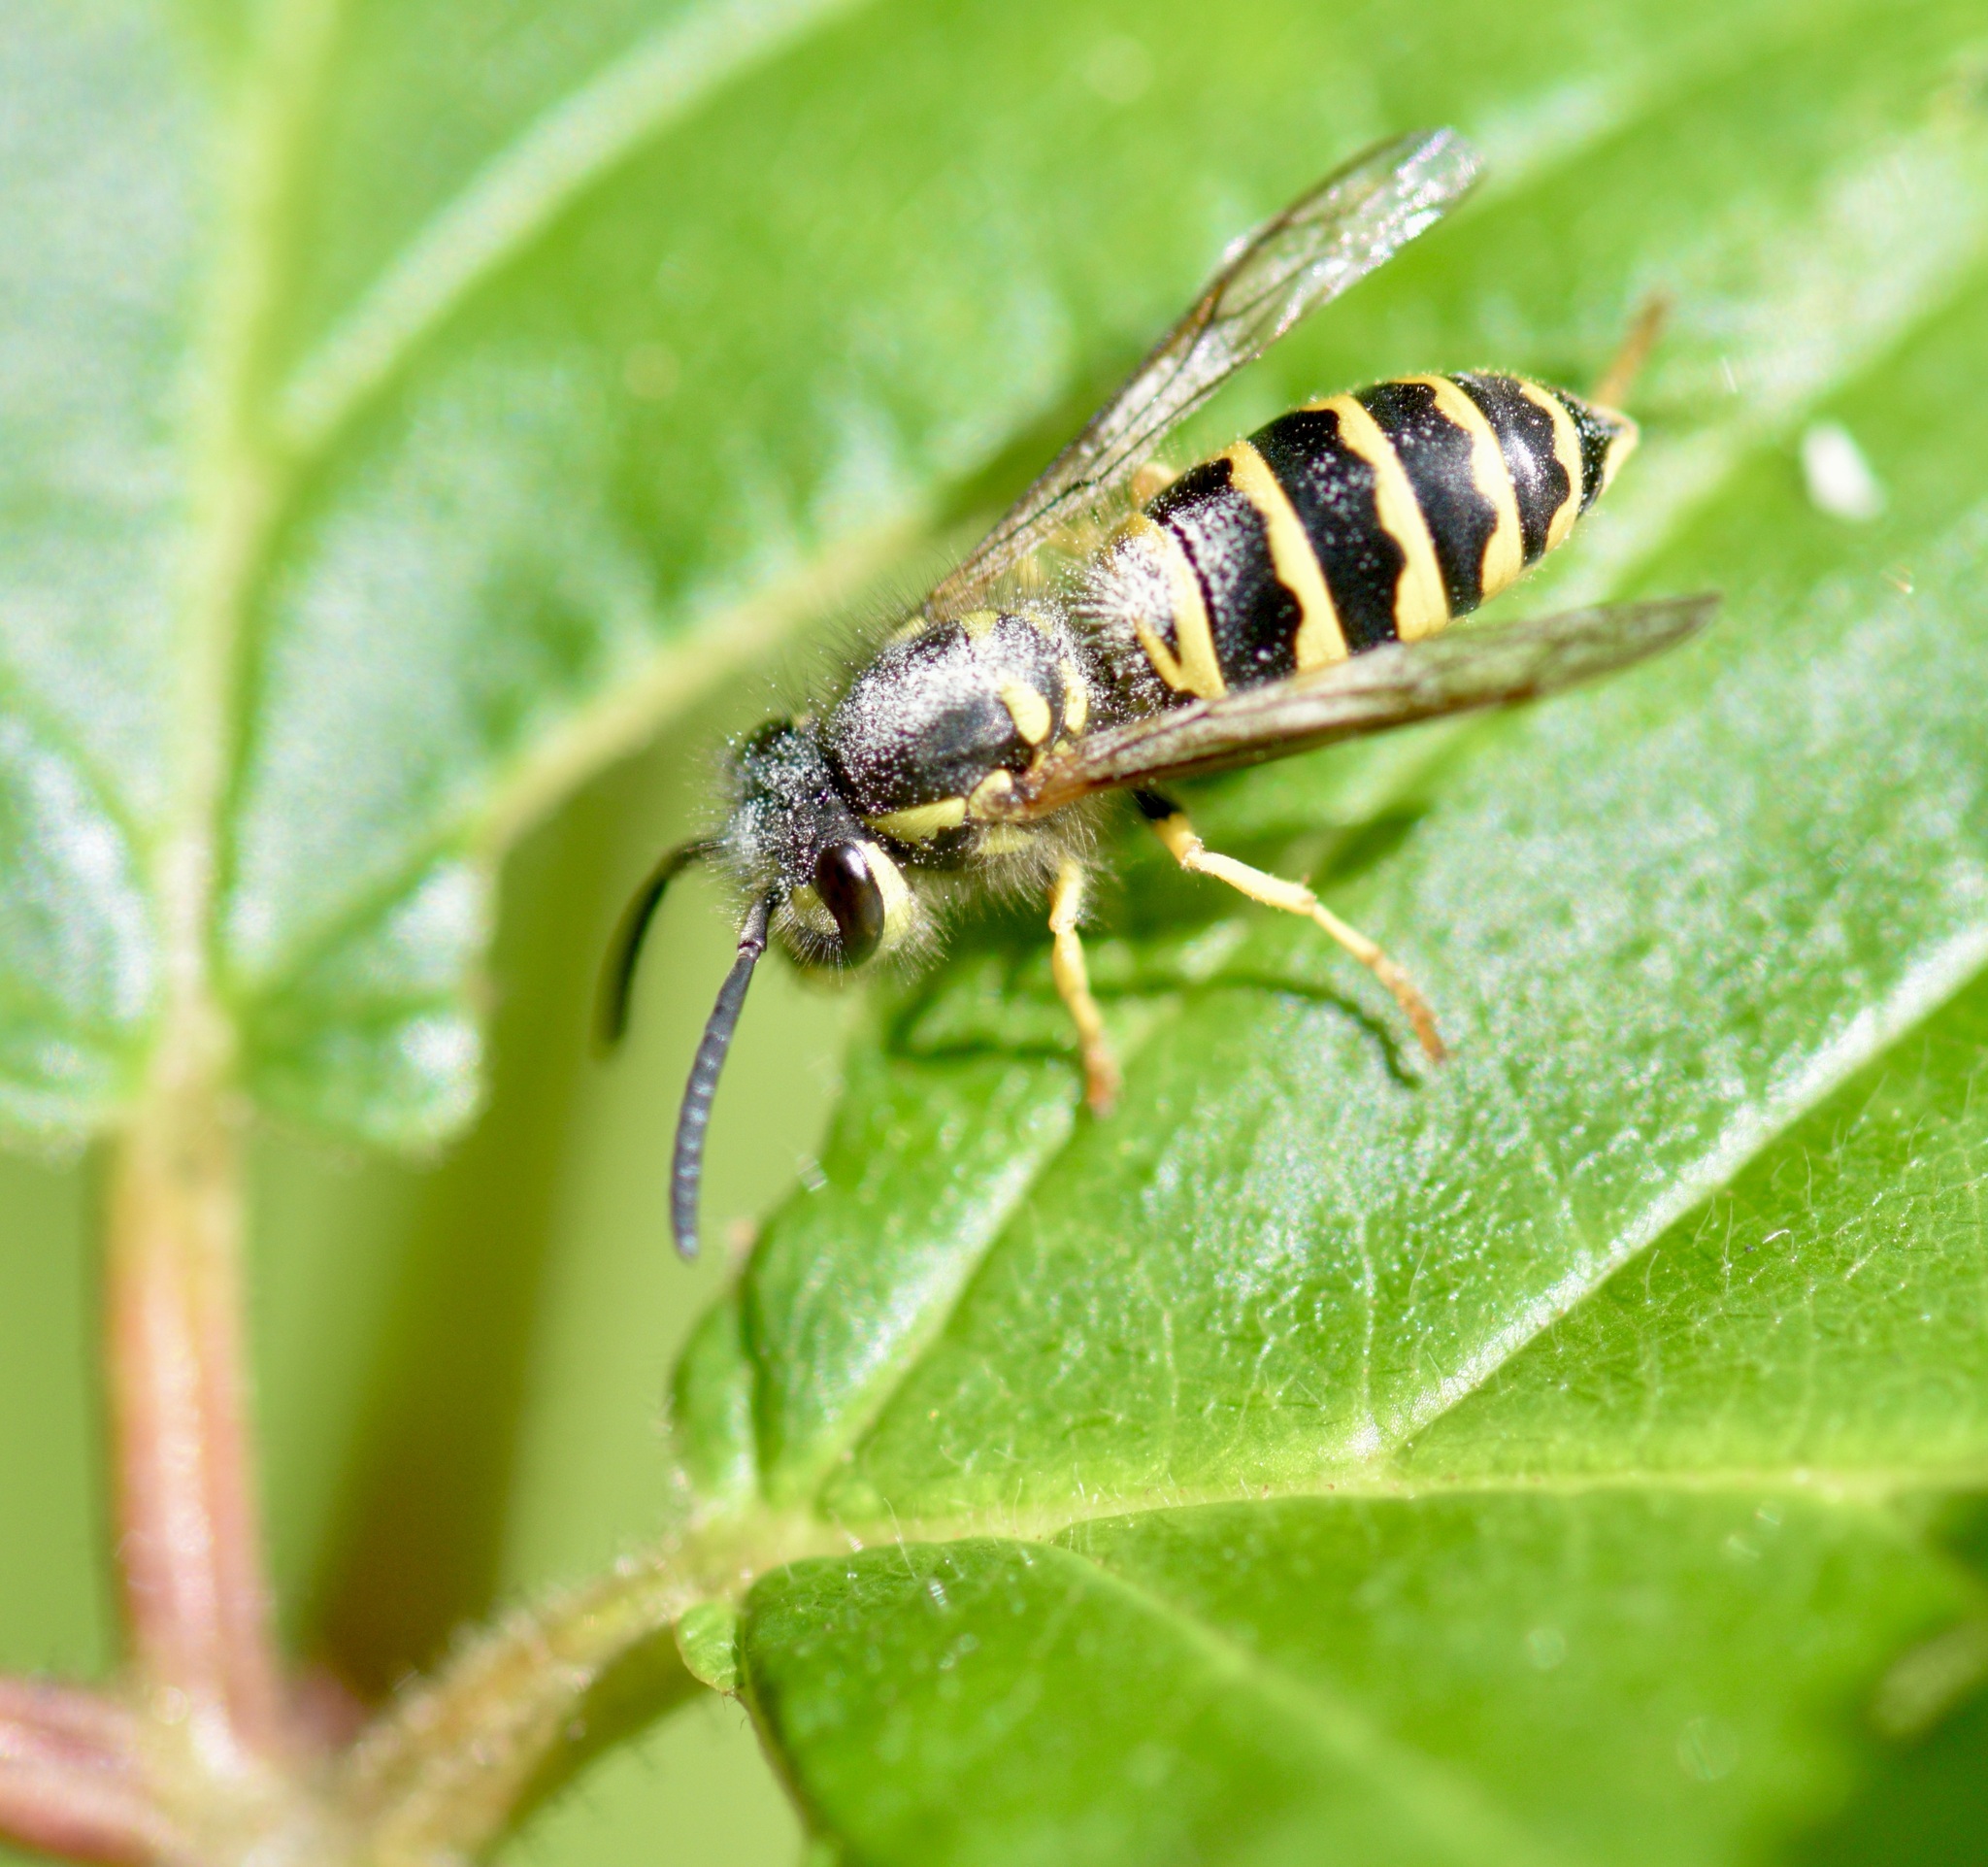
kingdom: Animalia
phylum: Arthropoda
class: Insecta
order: Hymenoptera
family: Vespidae
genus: Vespula
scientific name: Vespula maculifrons
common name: Eastern yellowjacket
